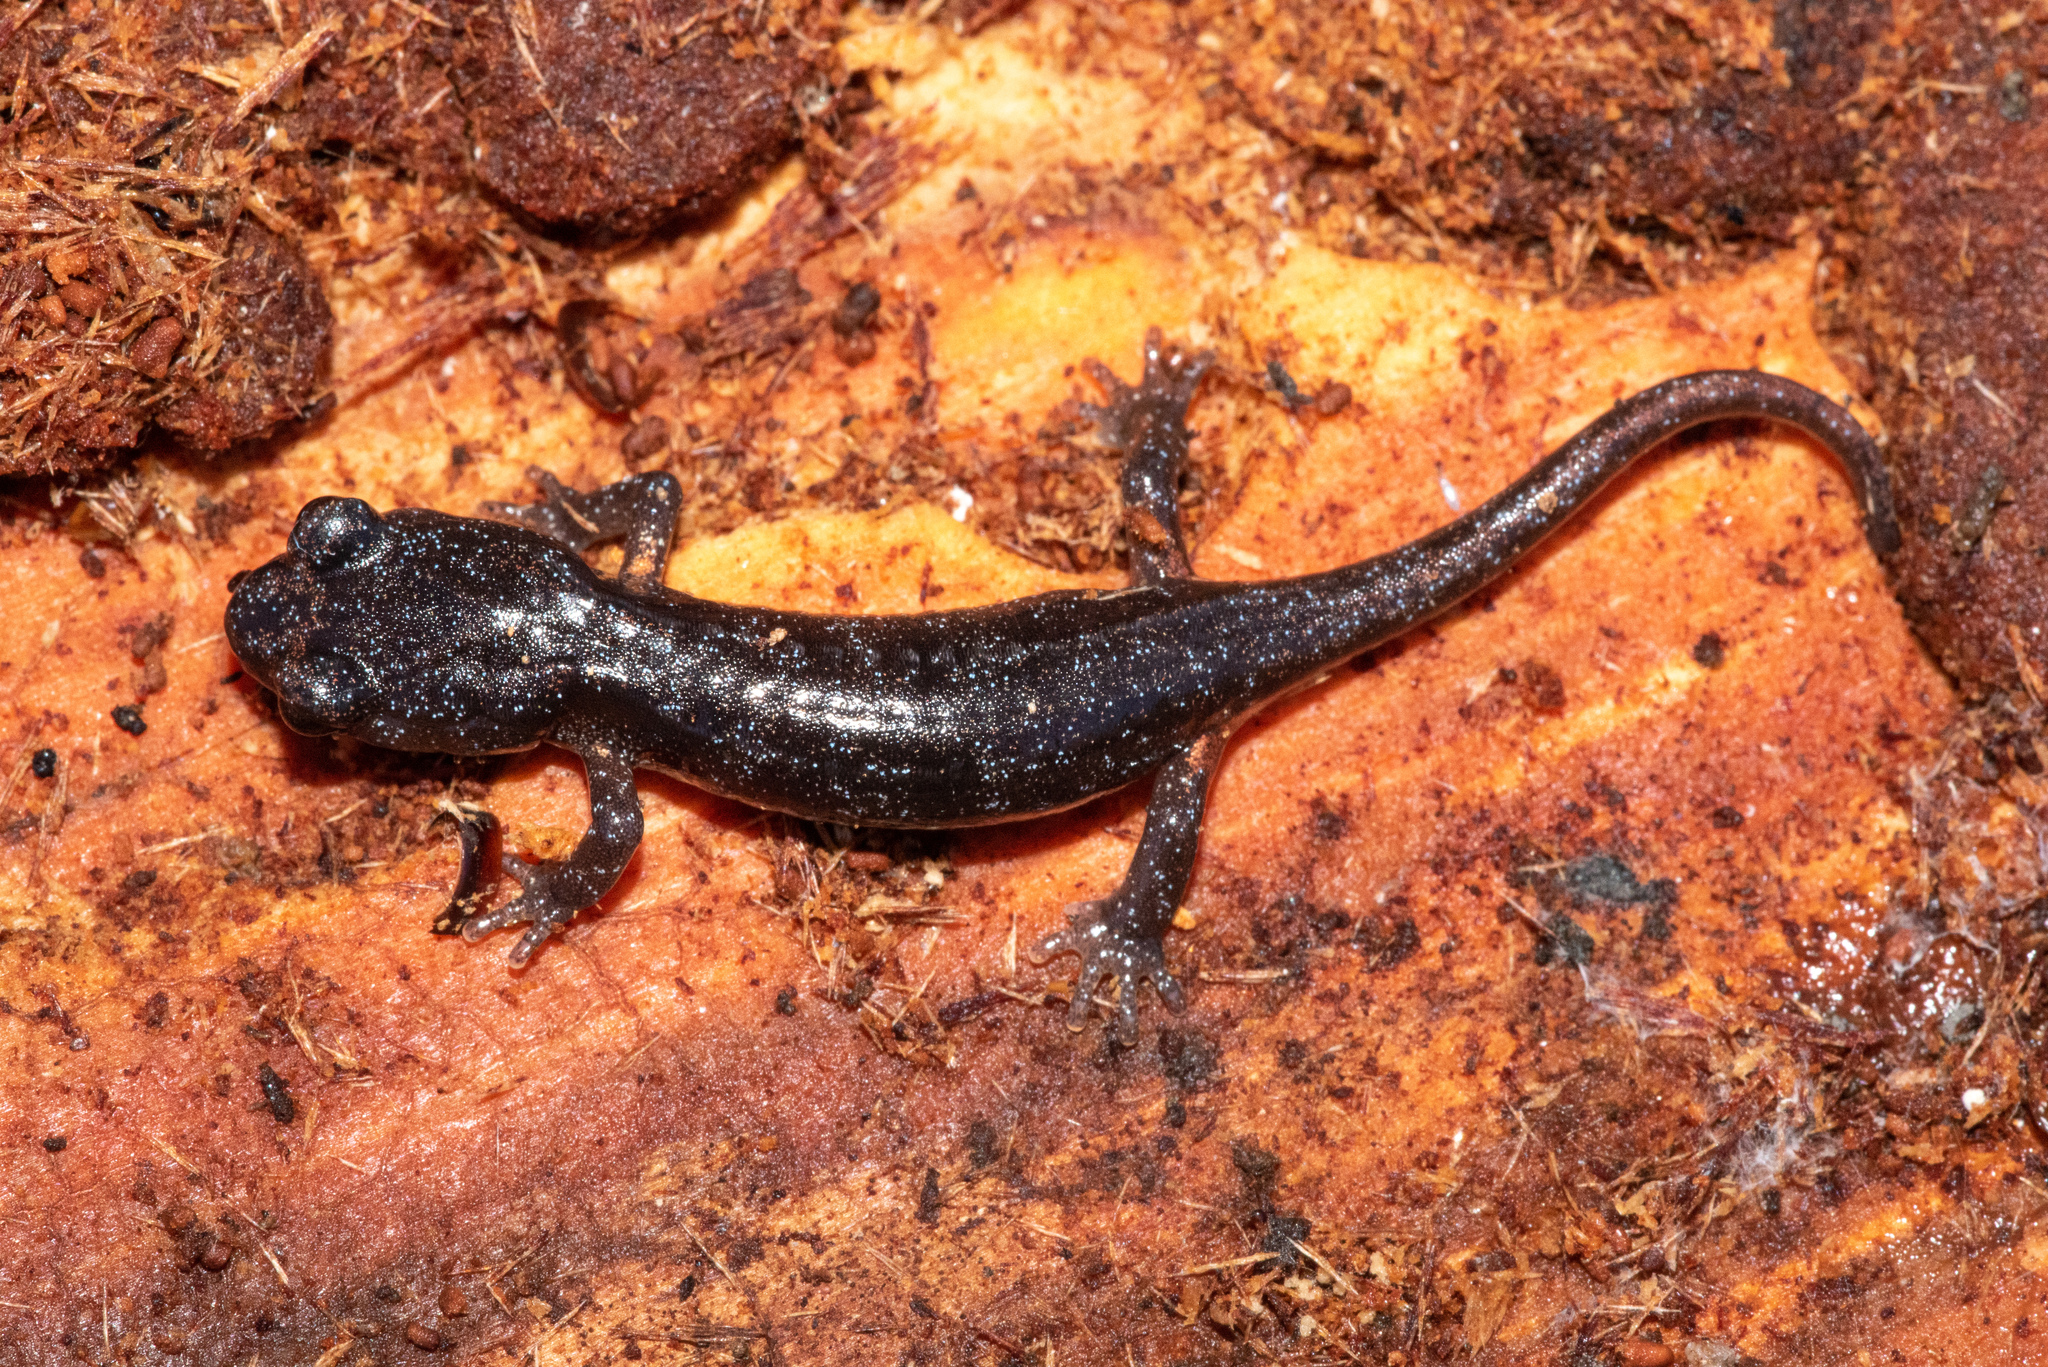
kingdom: Animalia
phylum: Chordata
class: Amphibia
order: Caudata
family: Plethodontidae
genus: Aneides
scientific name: Aneides lugubris
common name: Arboreal salamander
